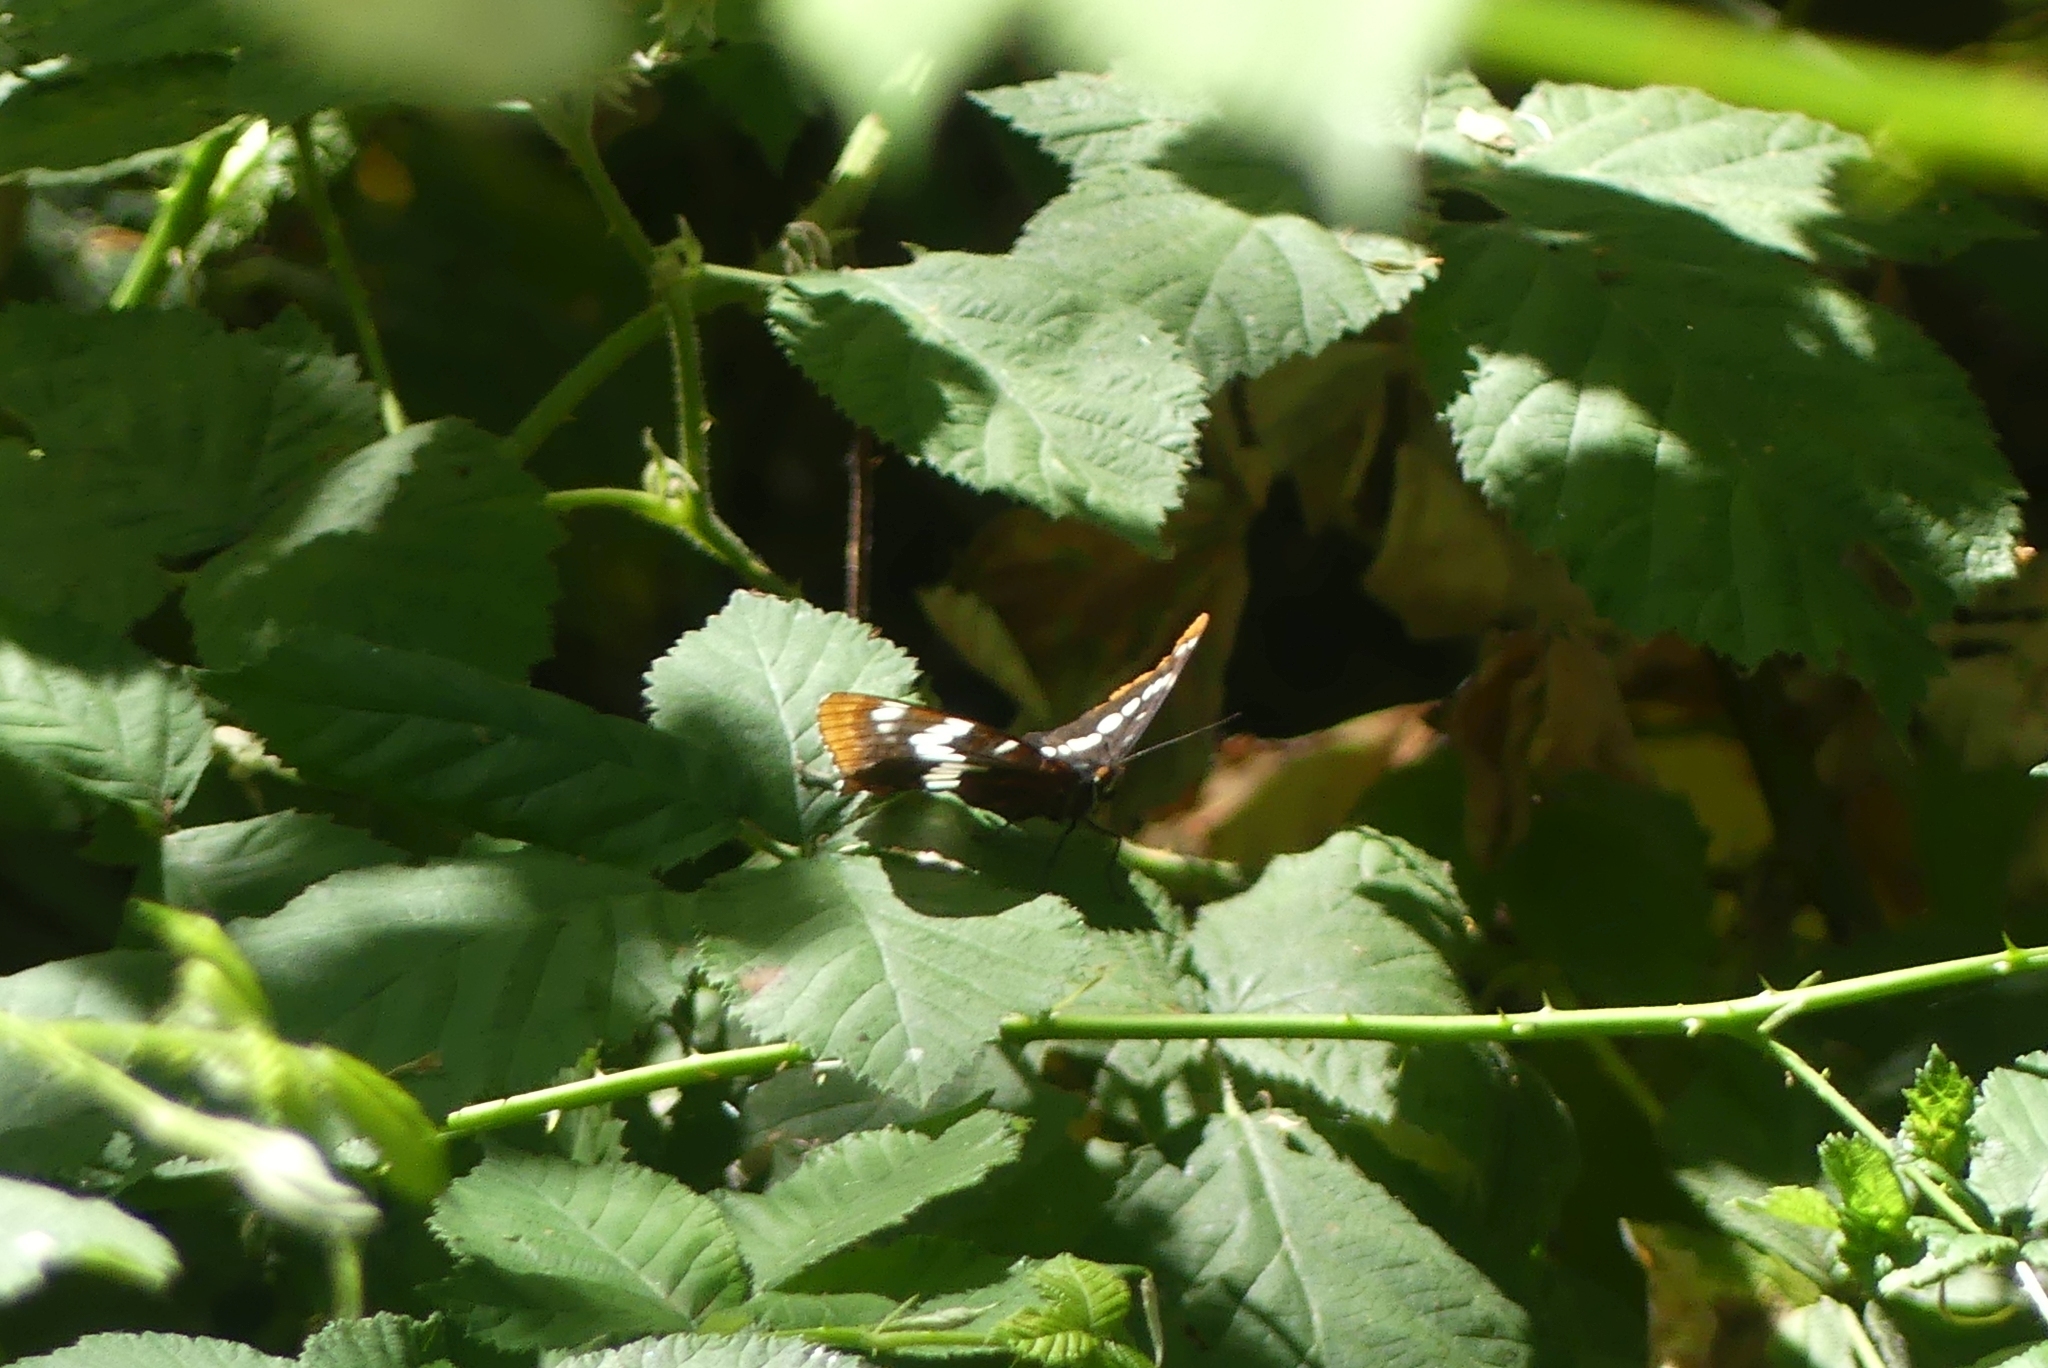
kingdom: Animalia
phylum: Arthropoda
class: Insecta
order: Lepidoptera
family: Nymphalidae
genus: Limenitis
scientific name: Limenitis lorquini
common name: Lorquin's admiral
